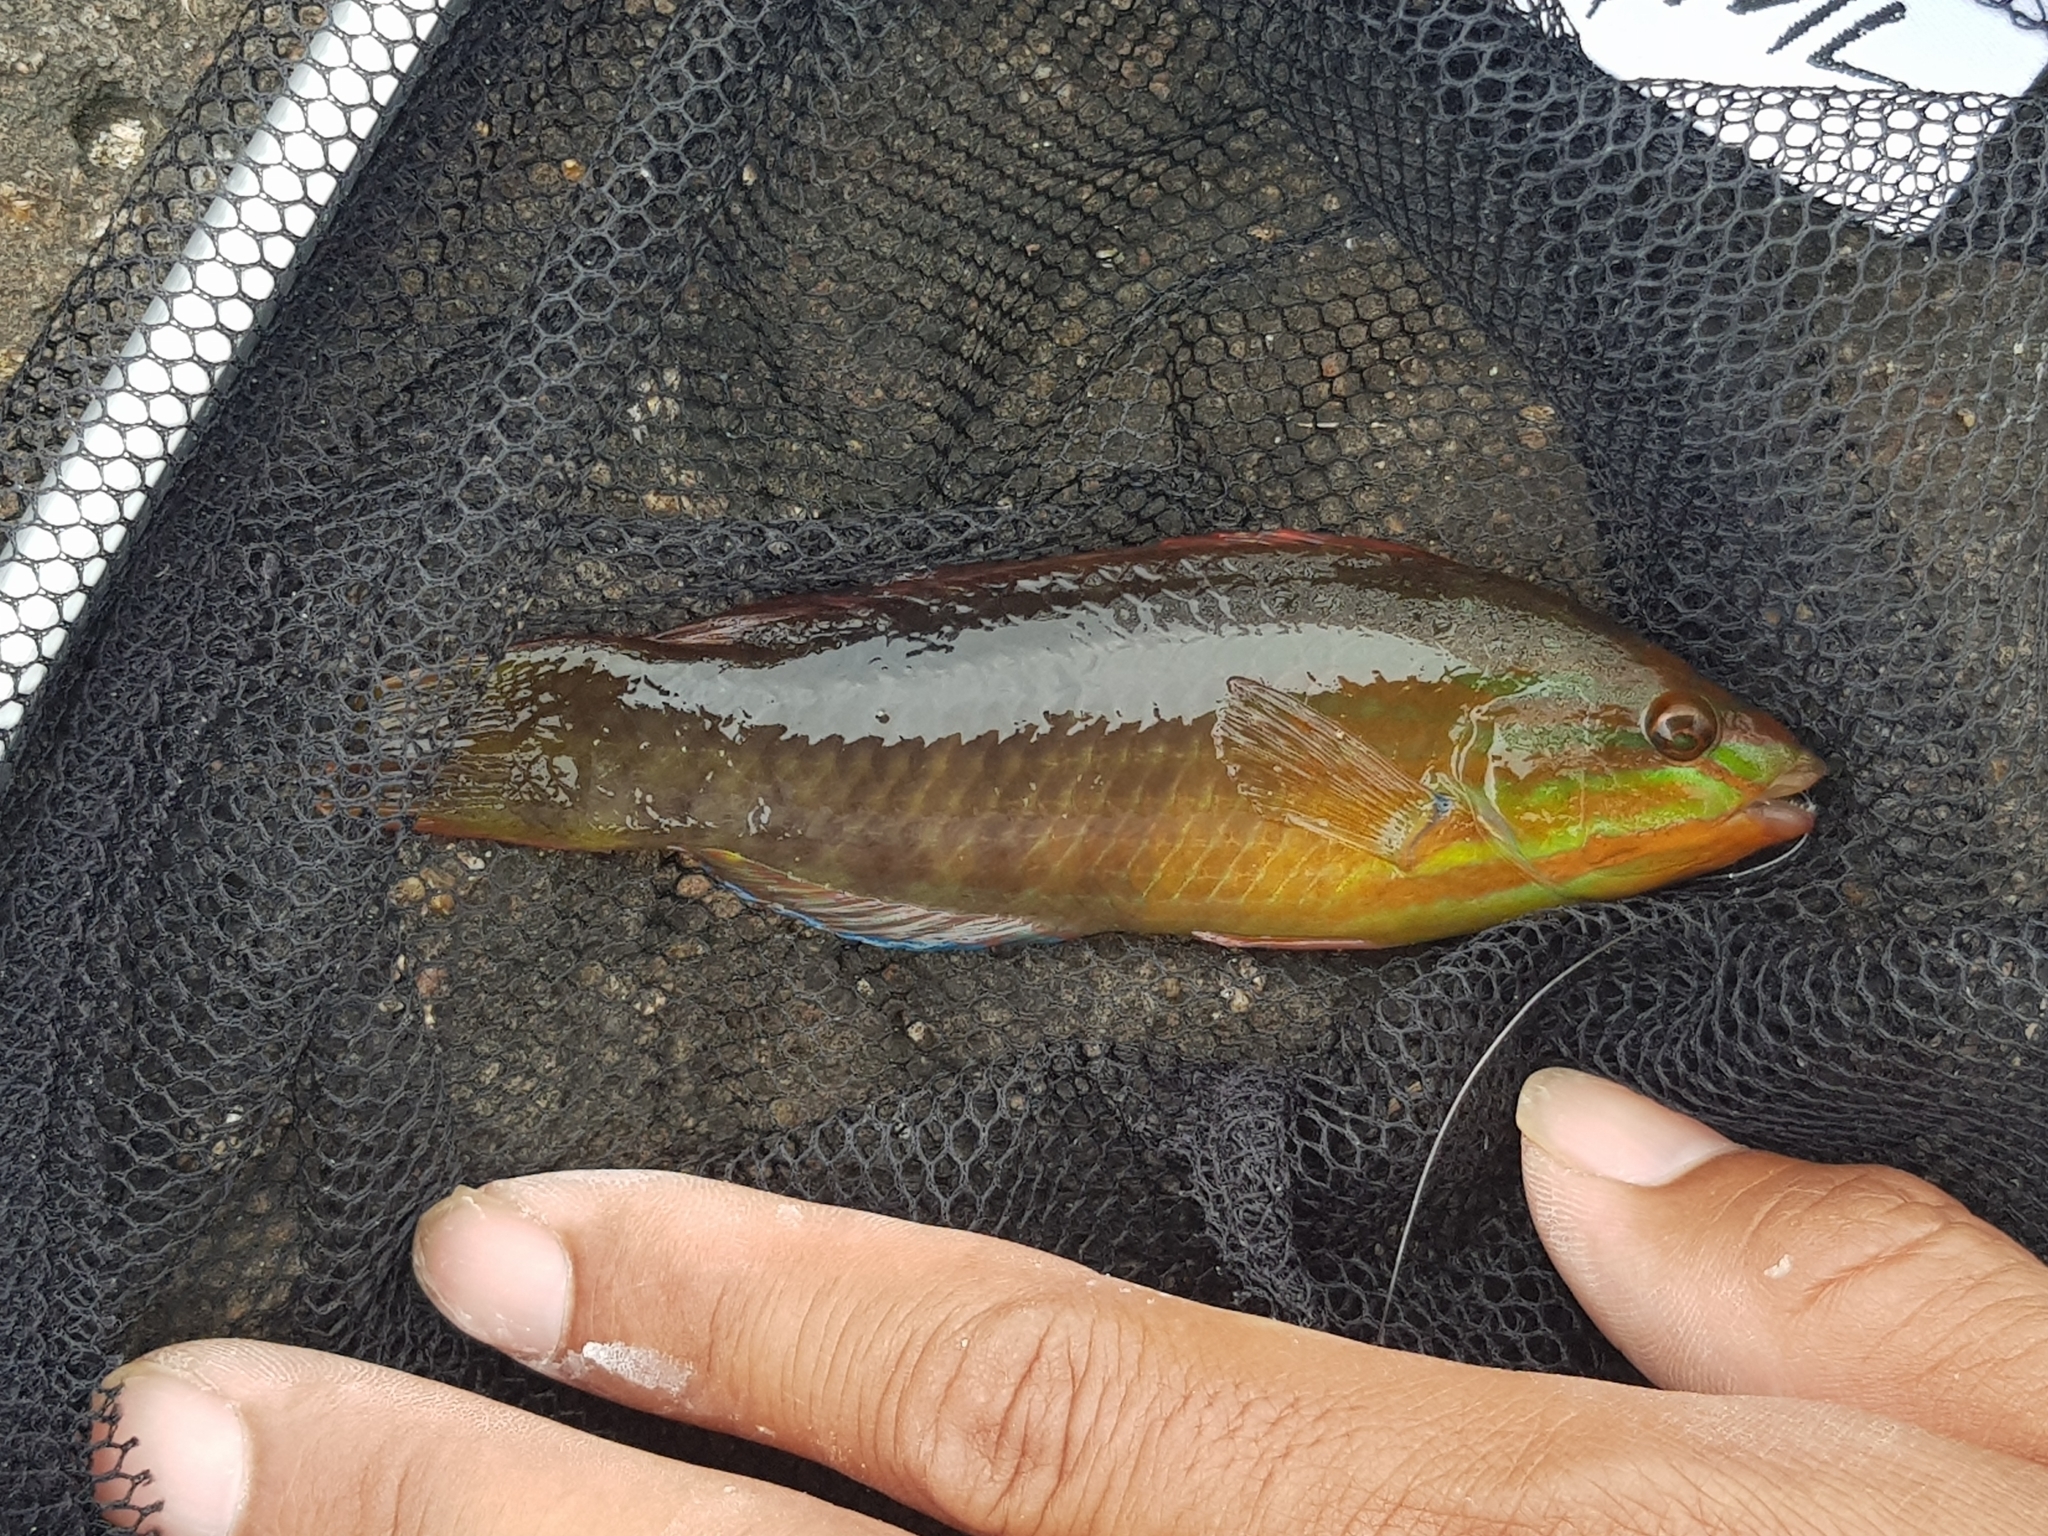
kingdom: Animalia
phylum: Chordata
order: Perciformes
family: Labridae
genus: Pseudolabrus
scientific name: Pseudolabrus guentheri
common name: Günther's wrasse
